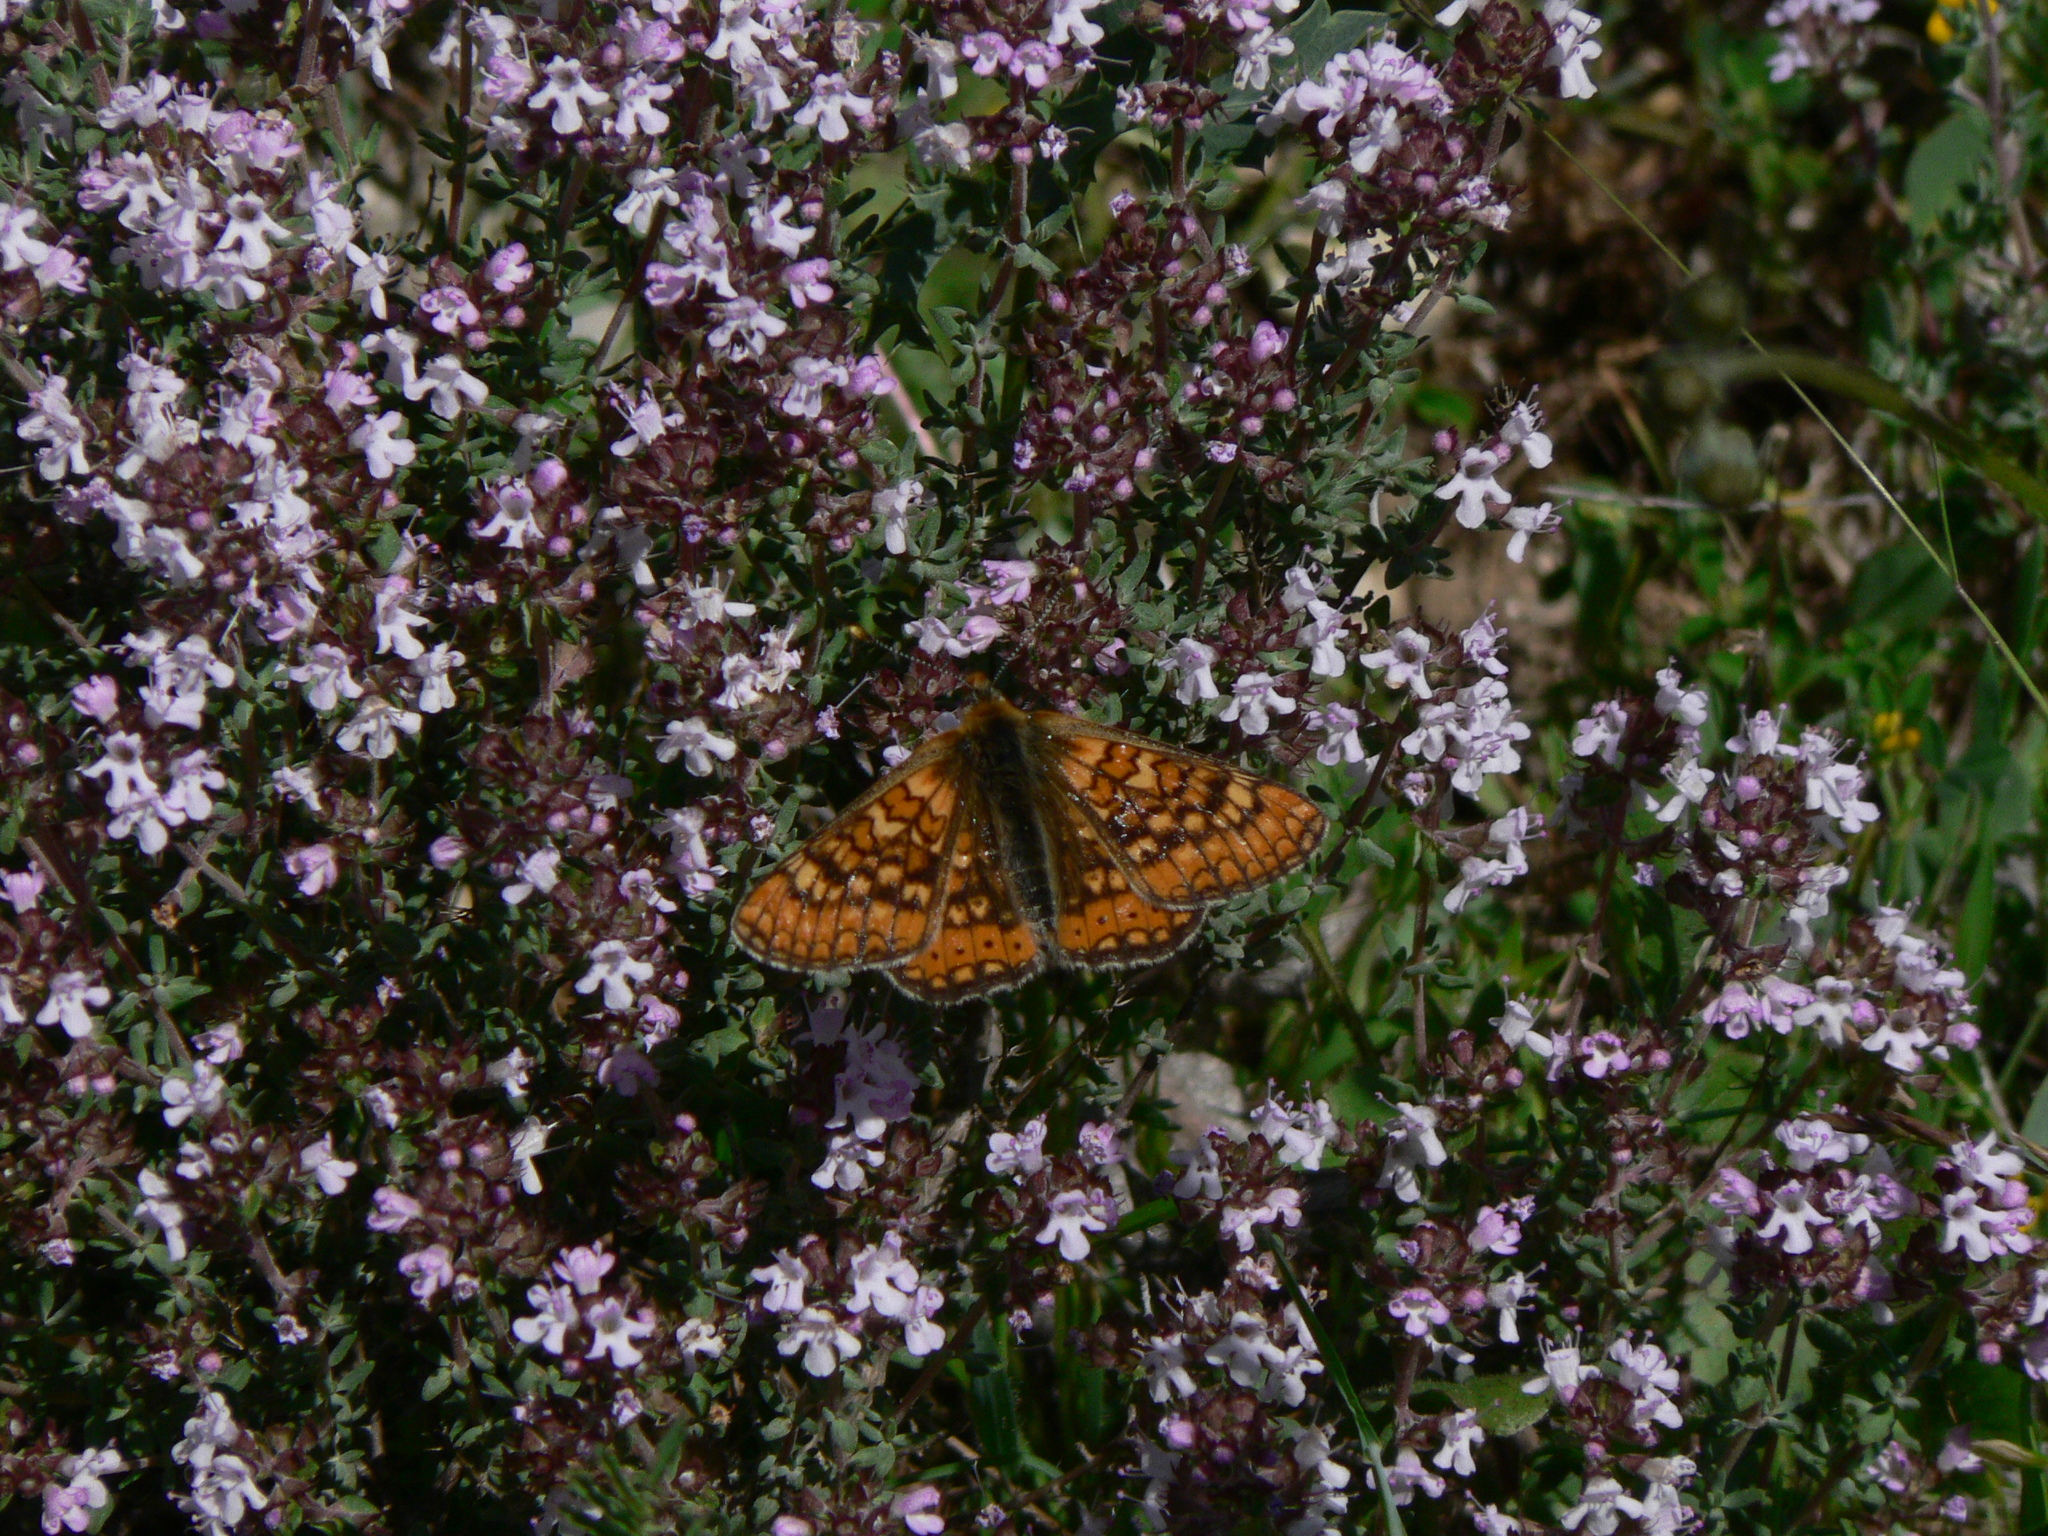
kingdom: Animalia
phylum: Arthropoda
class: Insecta
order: Lepidoptera
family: Nymphalidae
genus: Euphydryas
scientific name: Euphydryas aurinia
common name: Marsh fritillary
